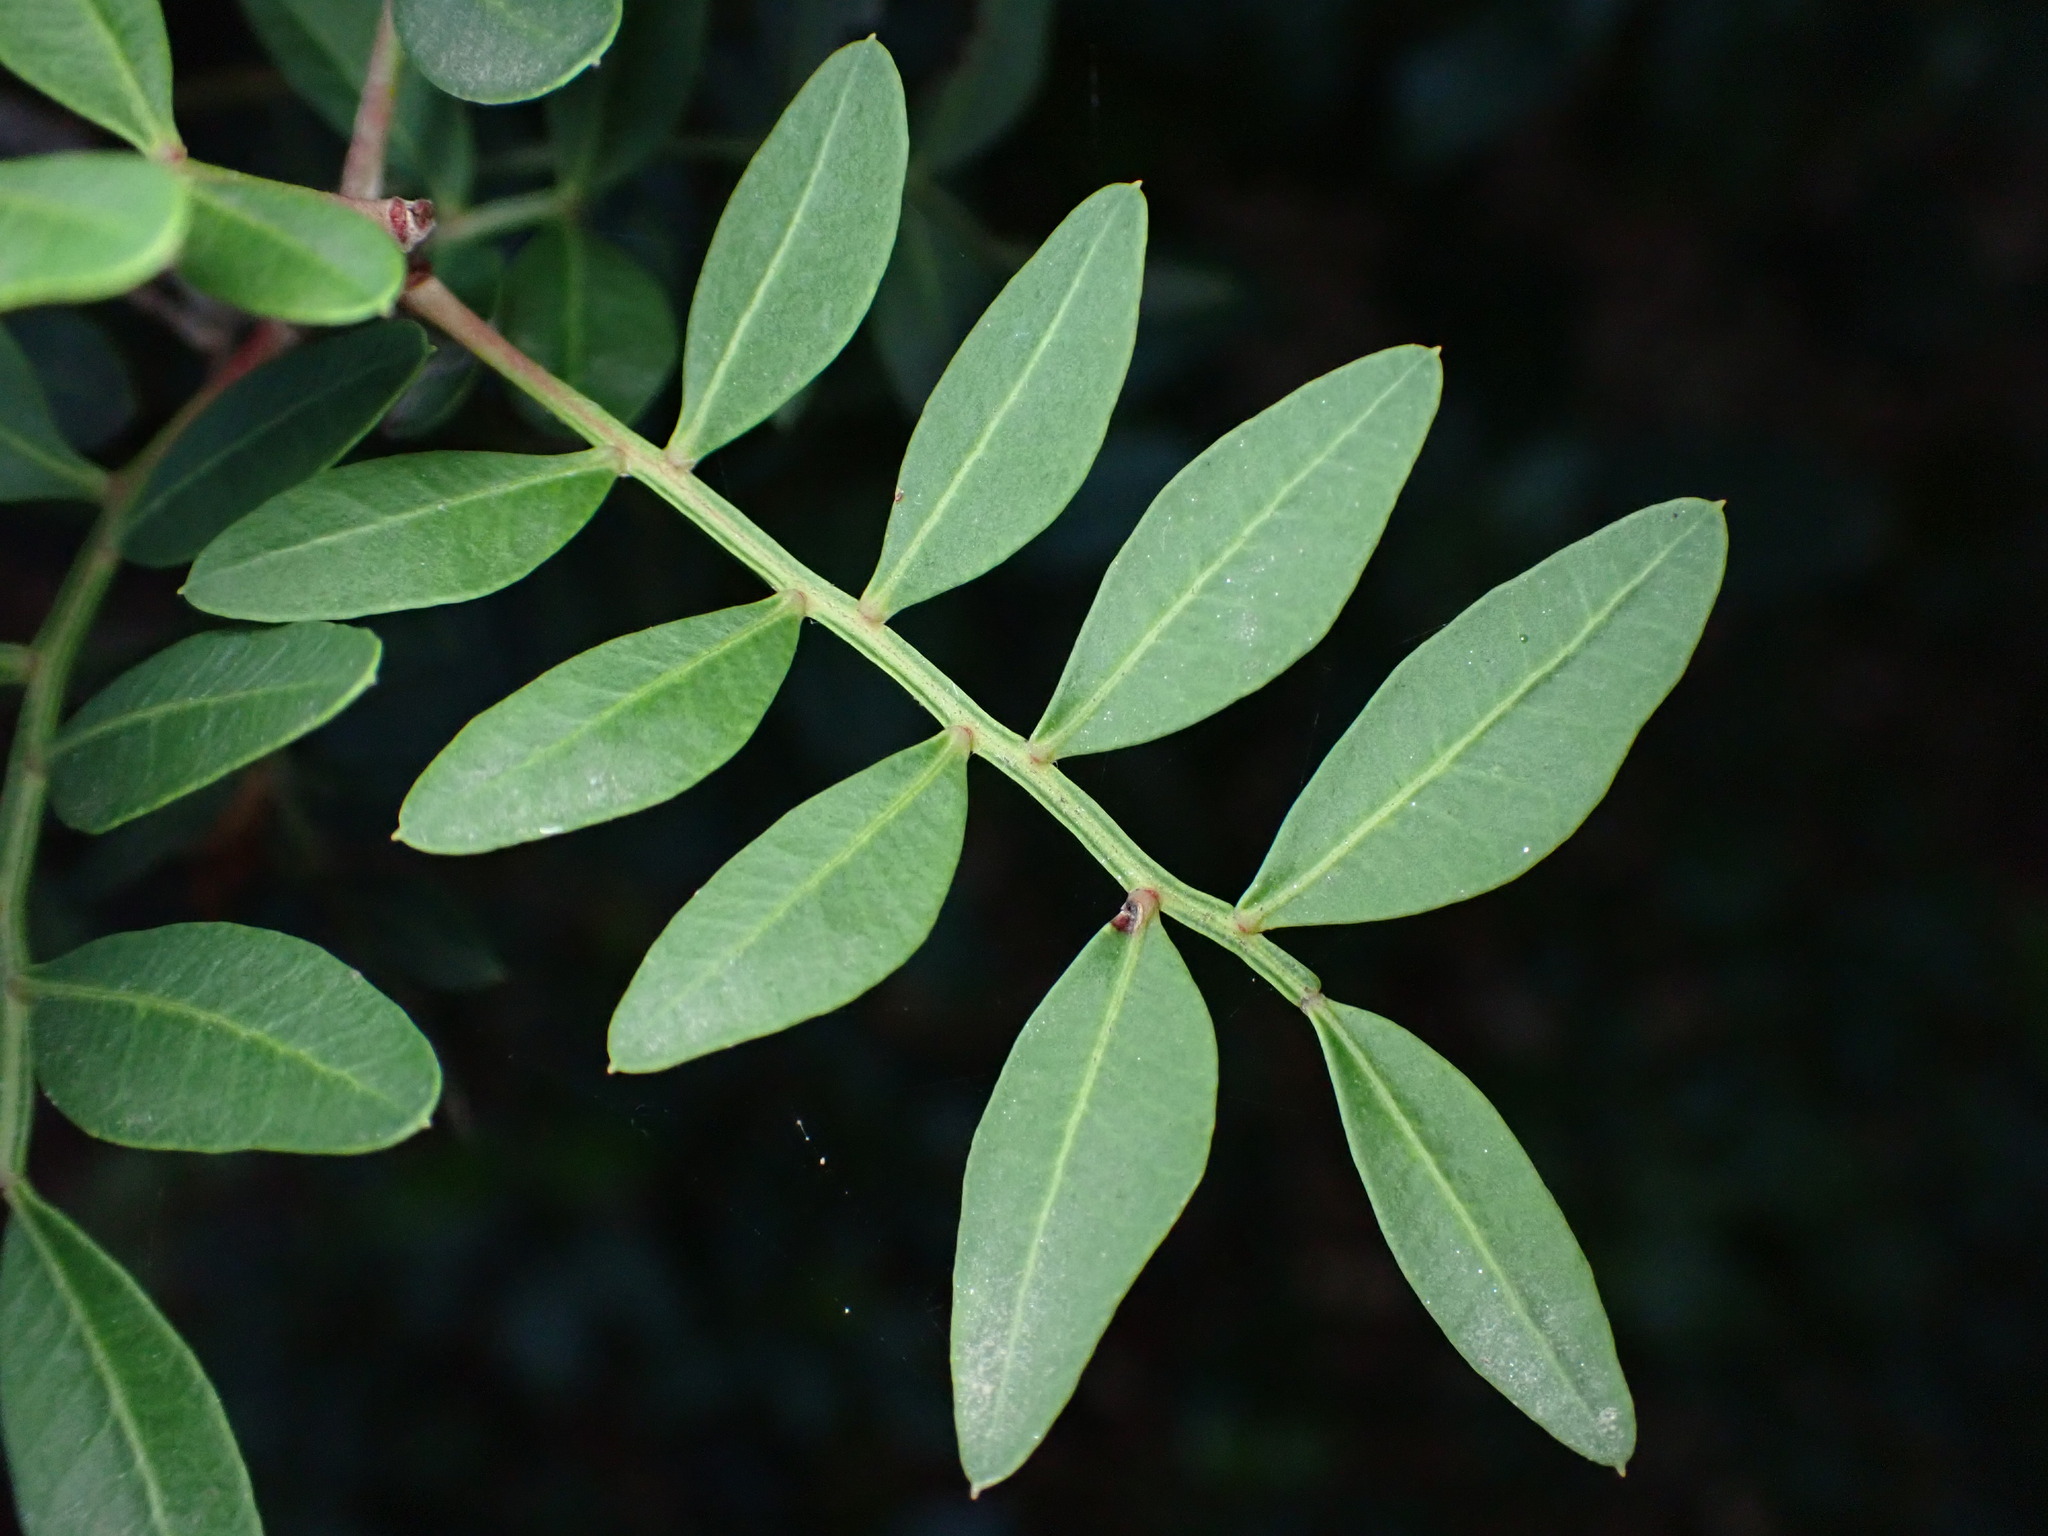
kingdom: Plantae
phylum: Tracheophyta
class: Magnoliopsida
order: Sapindales
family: Anacardiaceae
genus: Pistacia
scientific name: Pistacia lentiscus
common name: Lentisk
